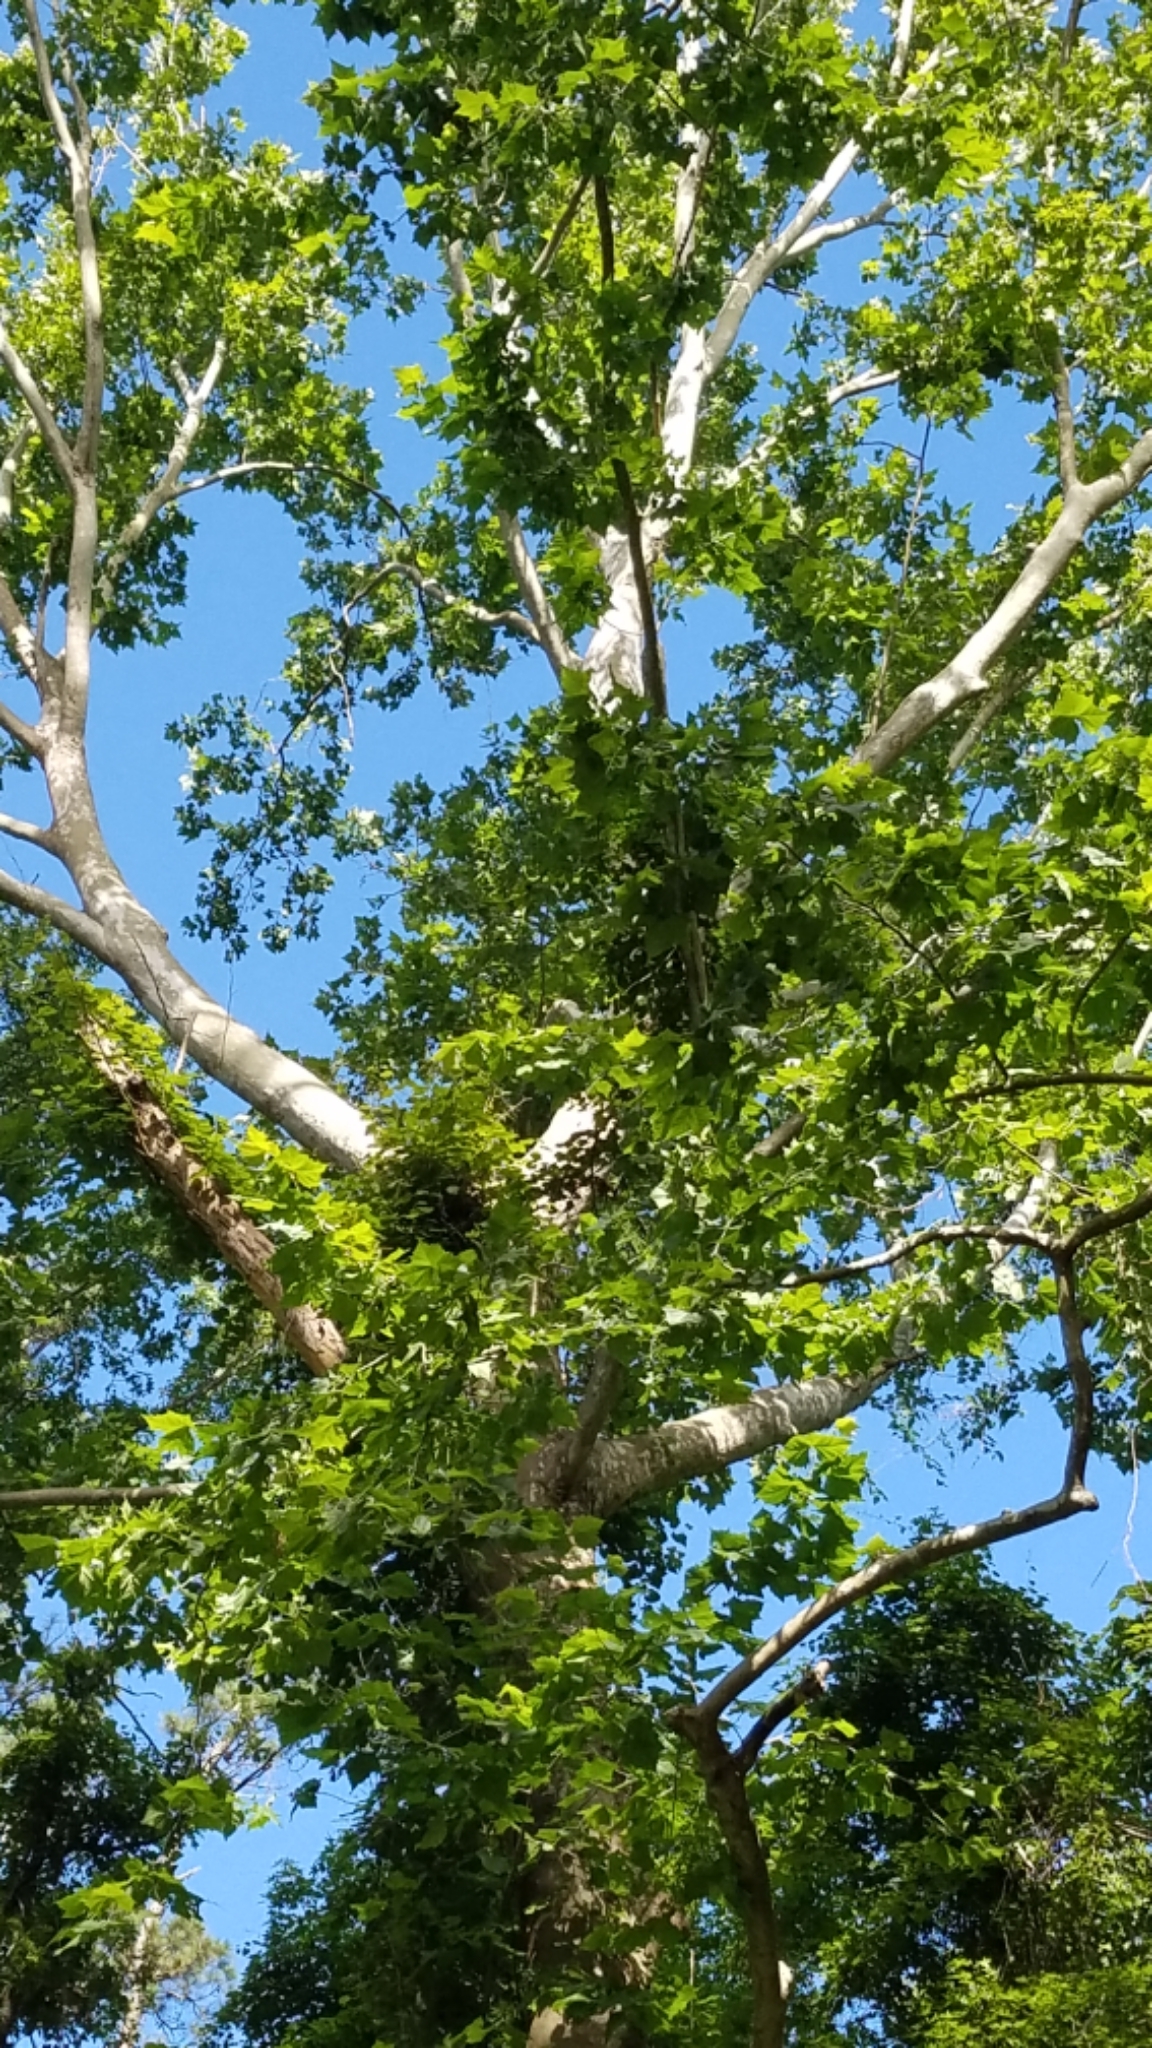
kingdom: Plantae
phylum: Tracheophyta
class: Magnoliopsida
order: Proteales
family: Platanaceae
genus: Platanus
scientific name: Platanus occidentalis
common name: American sycamore
